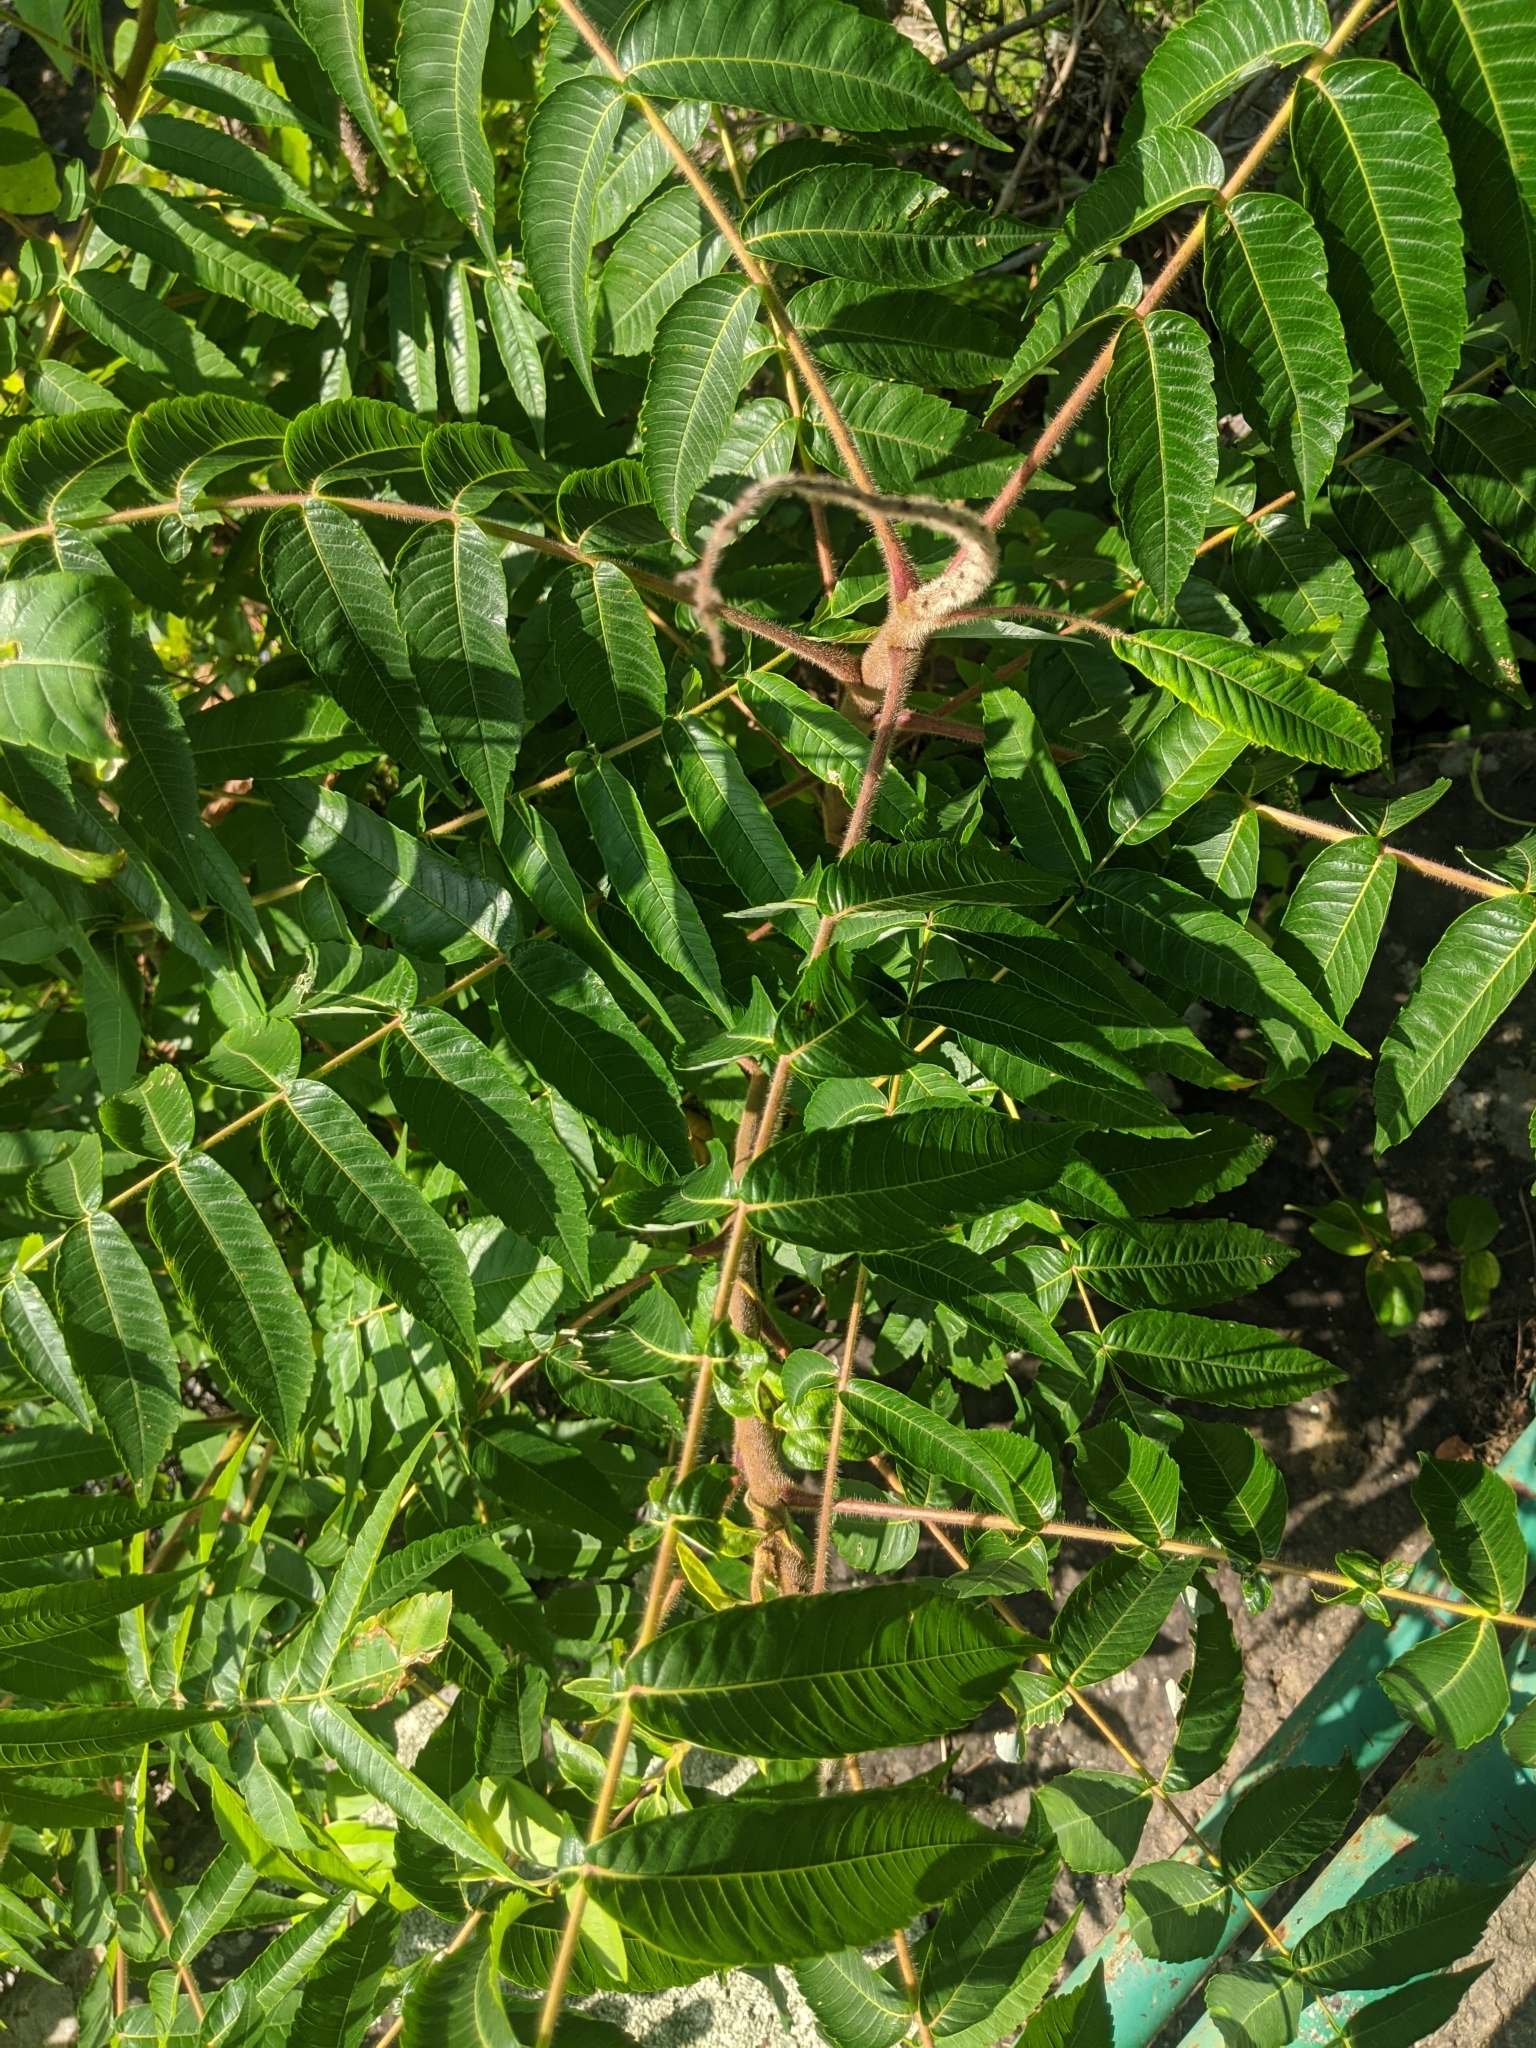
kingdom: Plantae
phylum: Tracheophyta
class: Magnoliopsida
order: Sapindales
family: Anacardiaceae
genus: Rhus
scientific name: Rhus typhina
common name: Staghorn sumac
